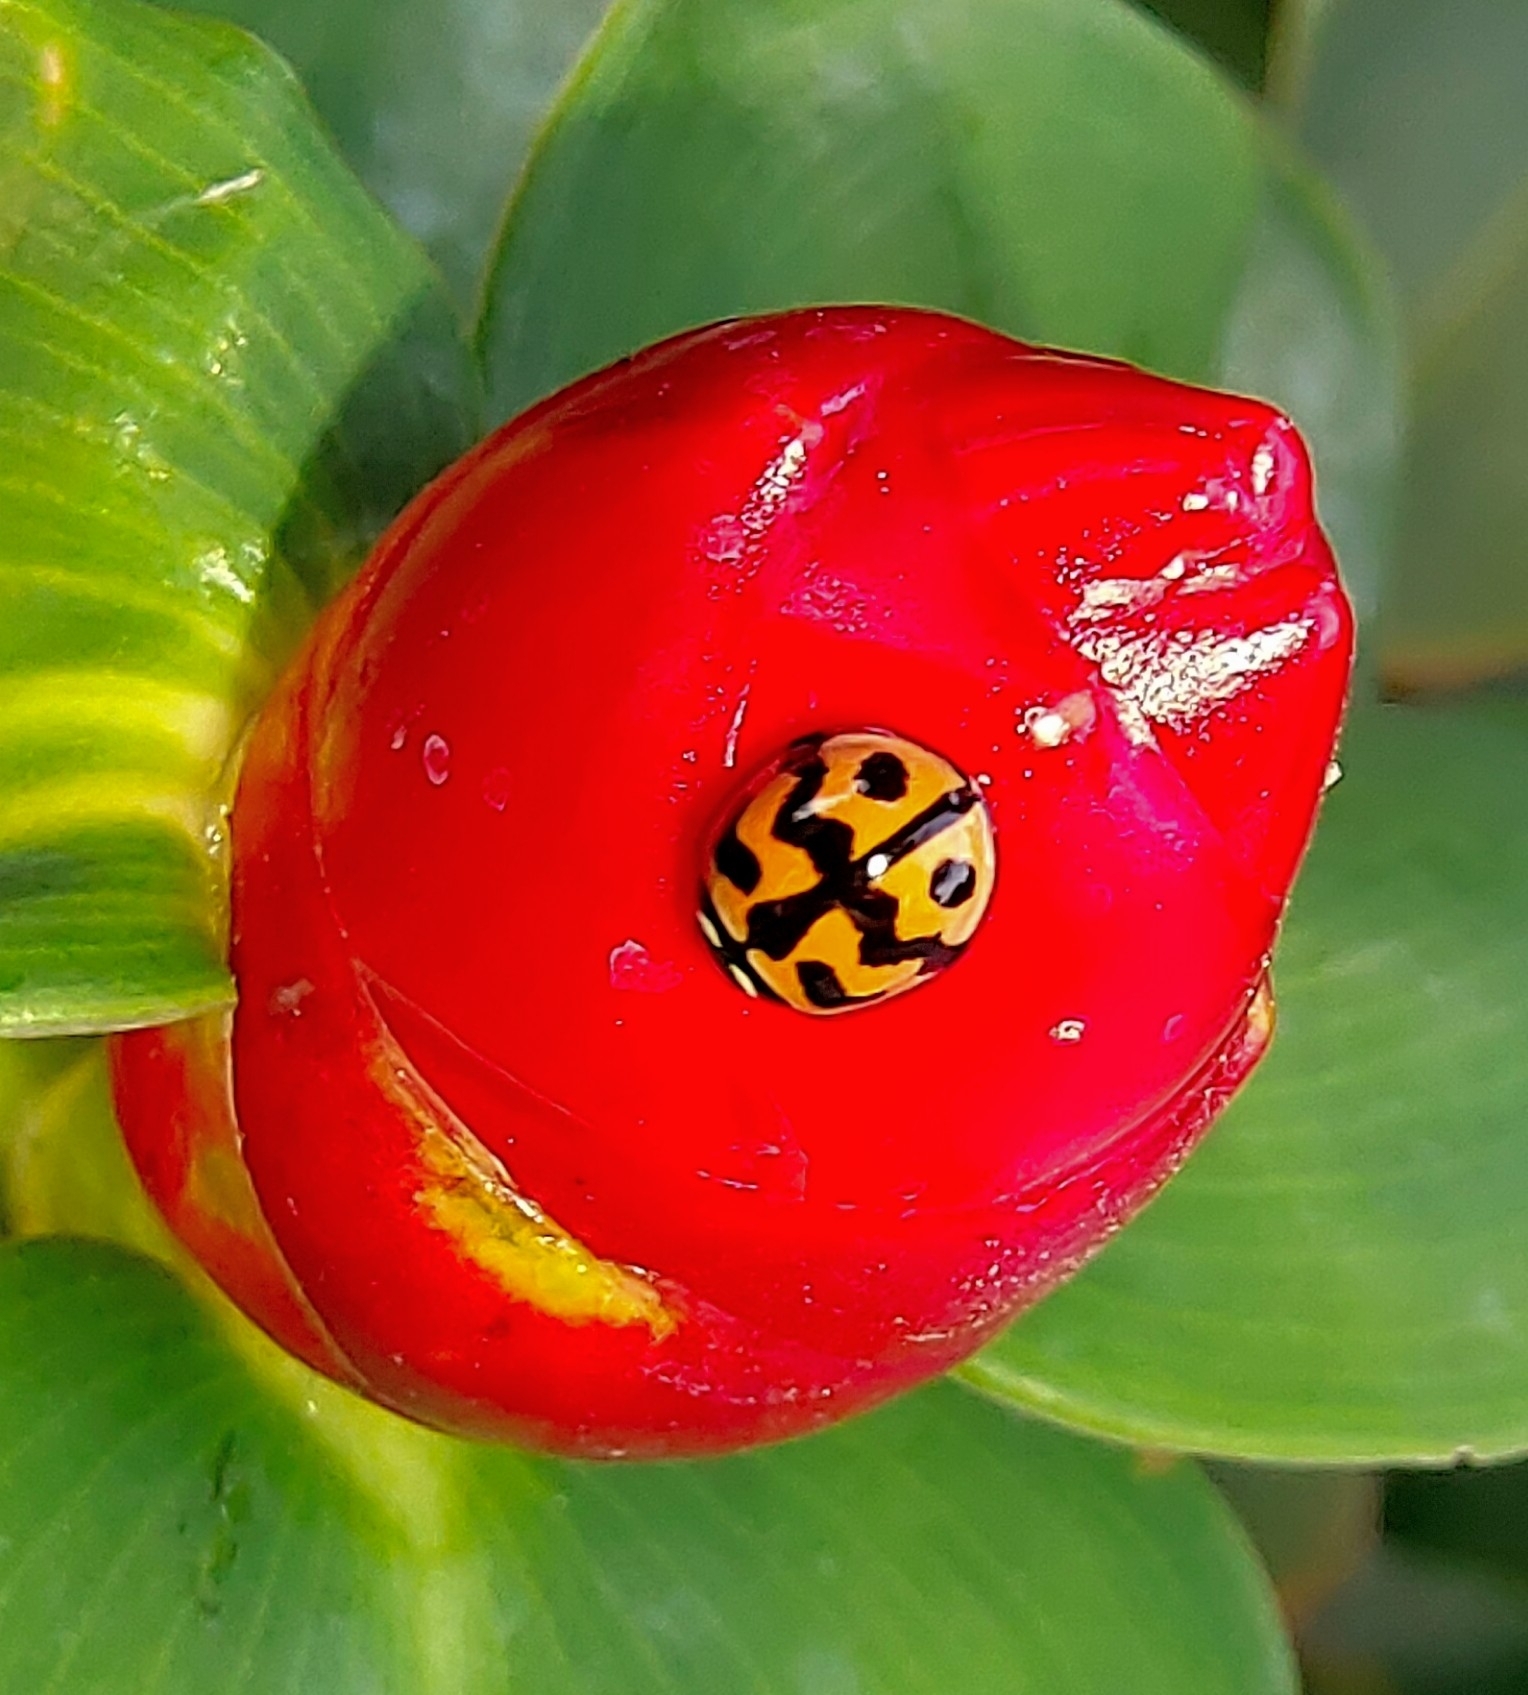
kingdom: Animalia
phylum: Arthropoda
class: Insecta
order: Coleoptera
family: Coccinellidae
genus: Cheilomenes
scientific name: Cheilomenes sexmaculata
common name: Ladybird beetle
